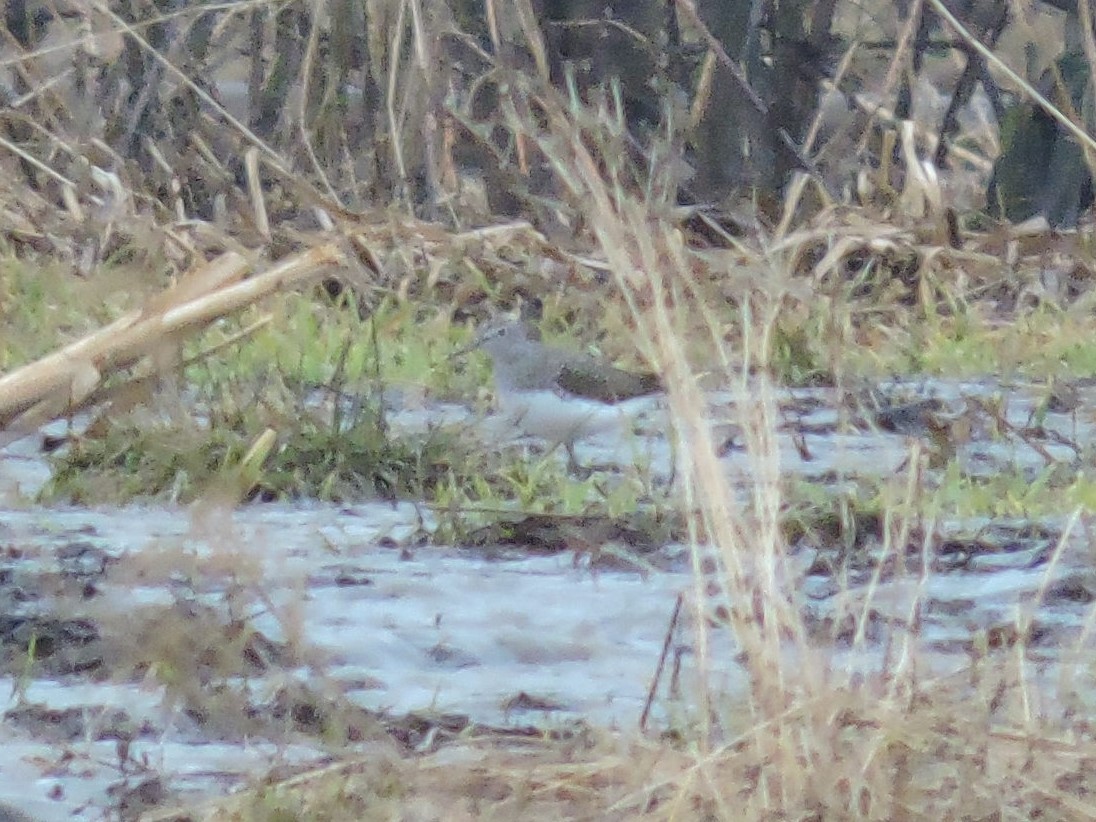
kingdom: Animalia
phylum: Chordata
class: Aves
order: Charadriiformes
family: Scolopacidae
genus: Tringa
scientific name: Tringa ochropus
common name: Green sandpiper
